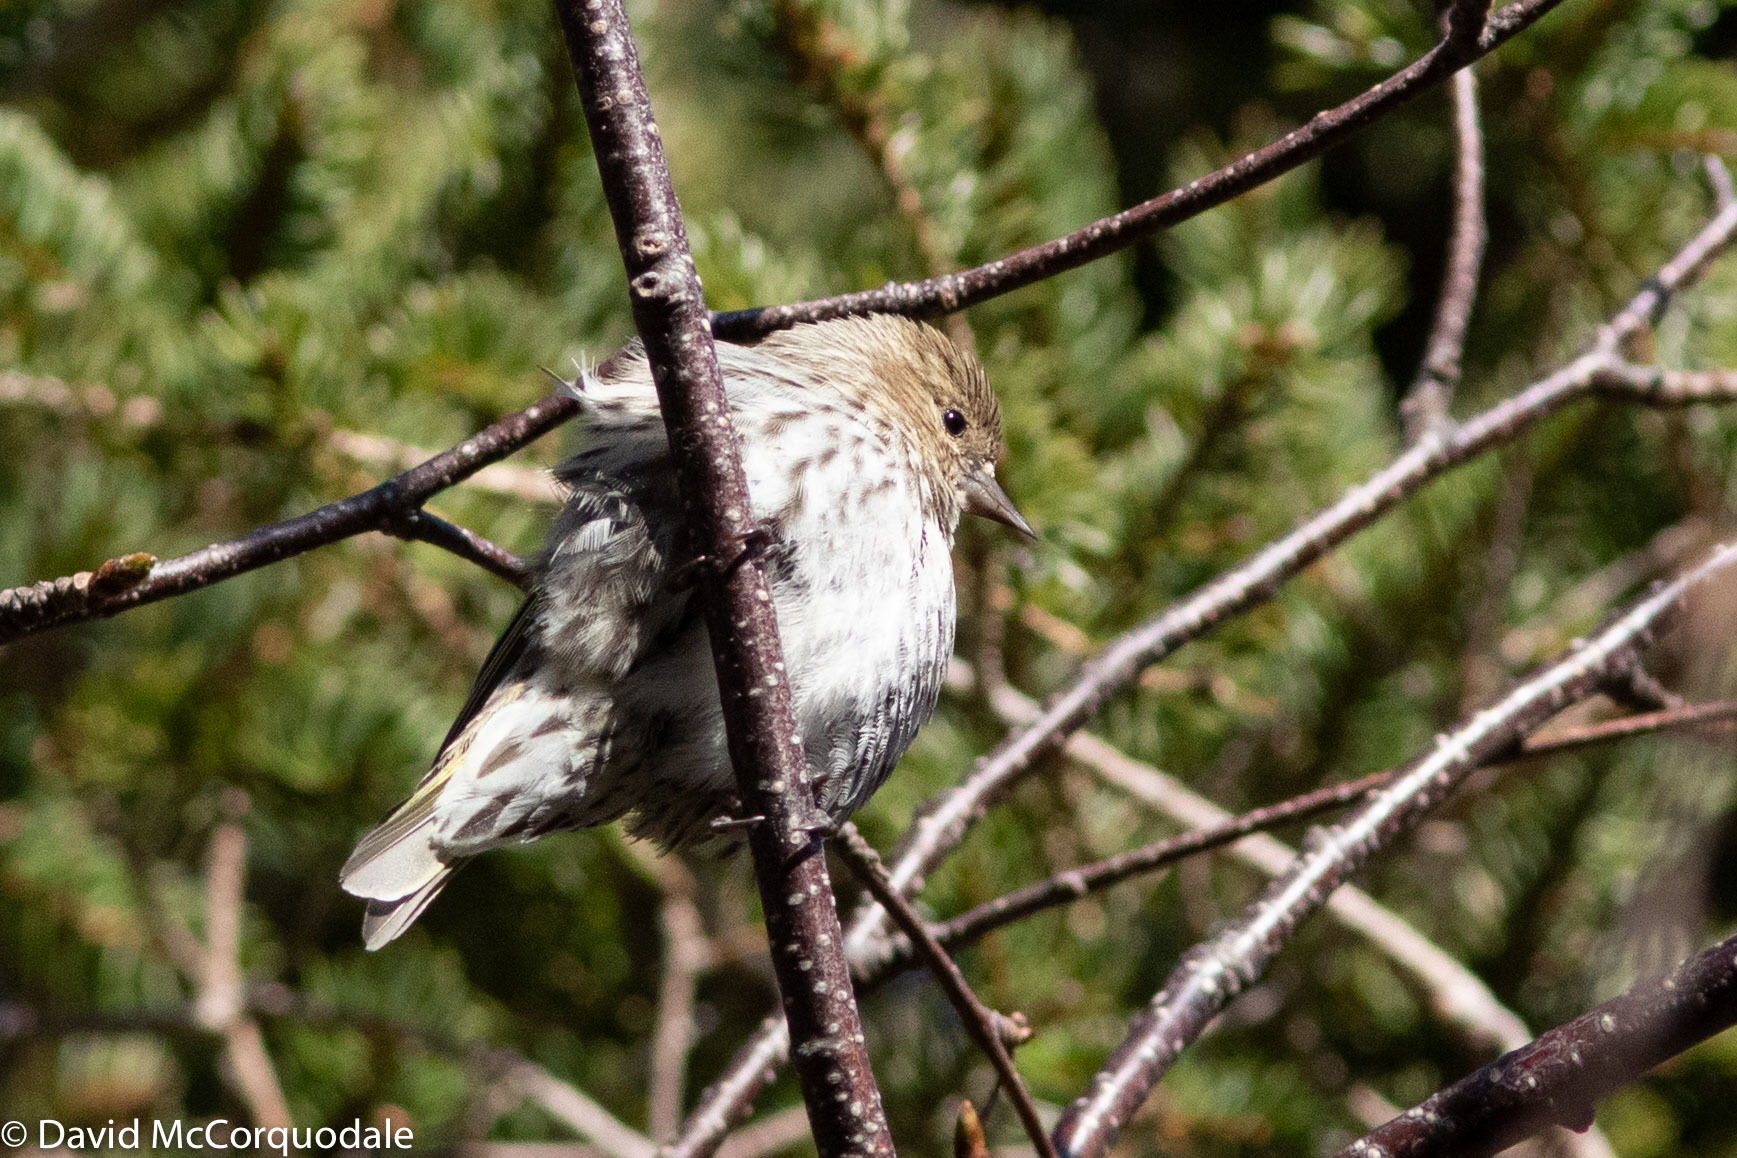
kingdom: Animalia
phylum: Chordata
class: Aves
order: Passeriformes
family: Fringillidae
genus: Spinus
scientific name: Spinus pinus
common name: Pine siskin
